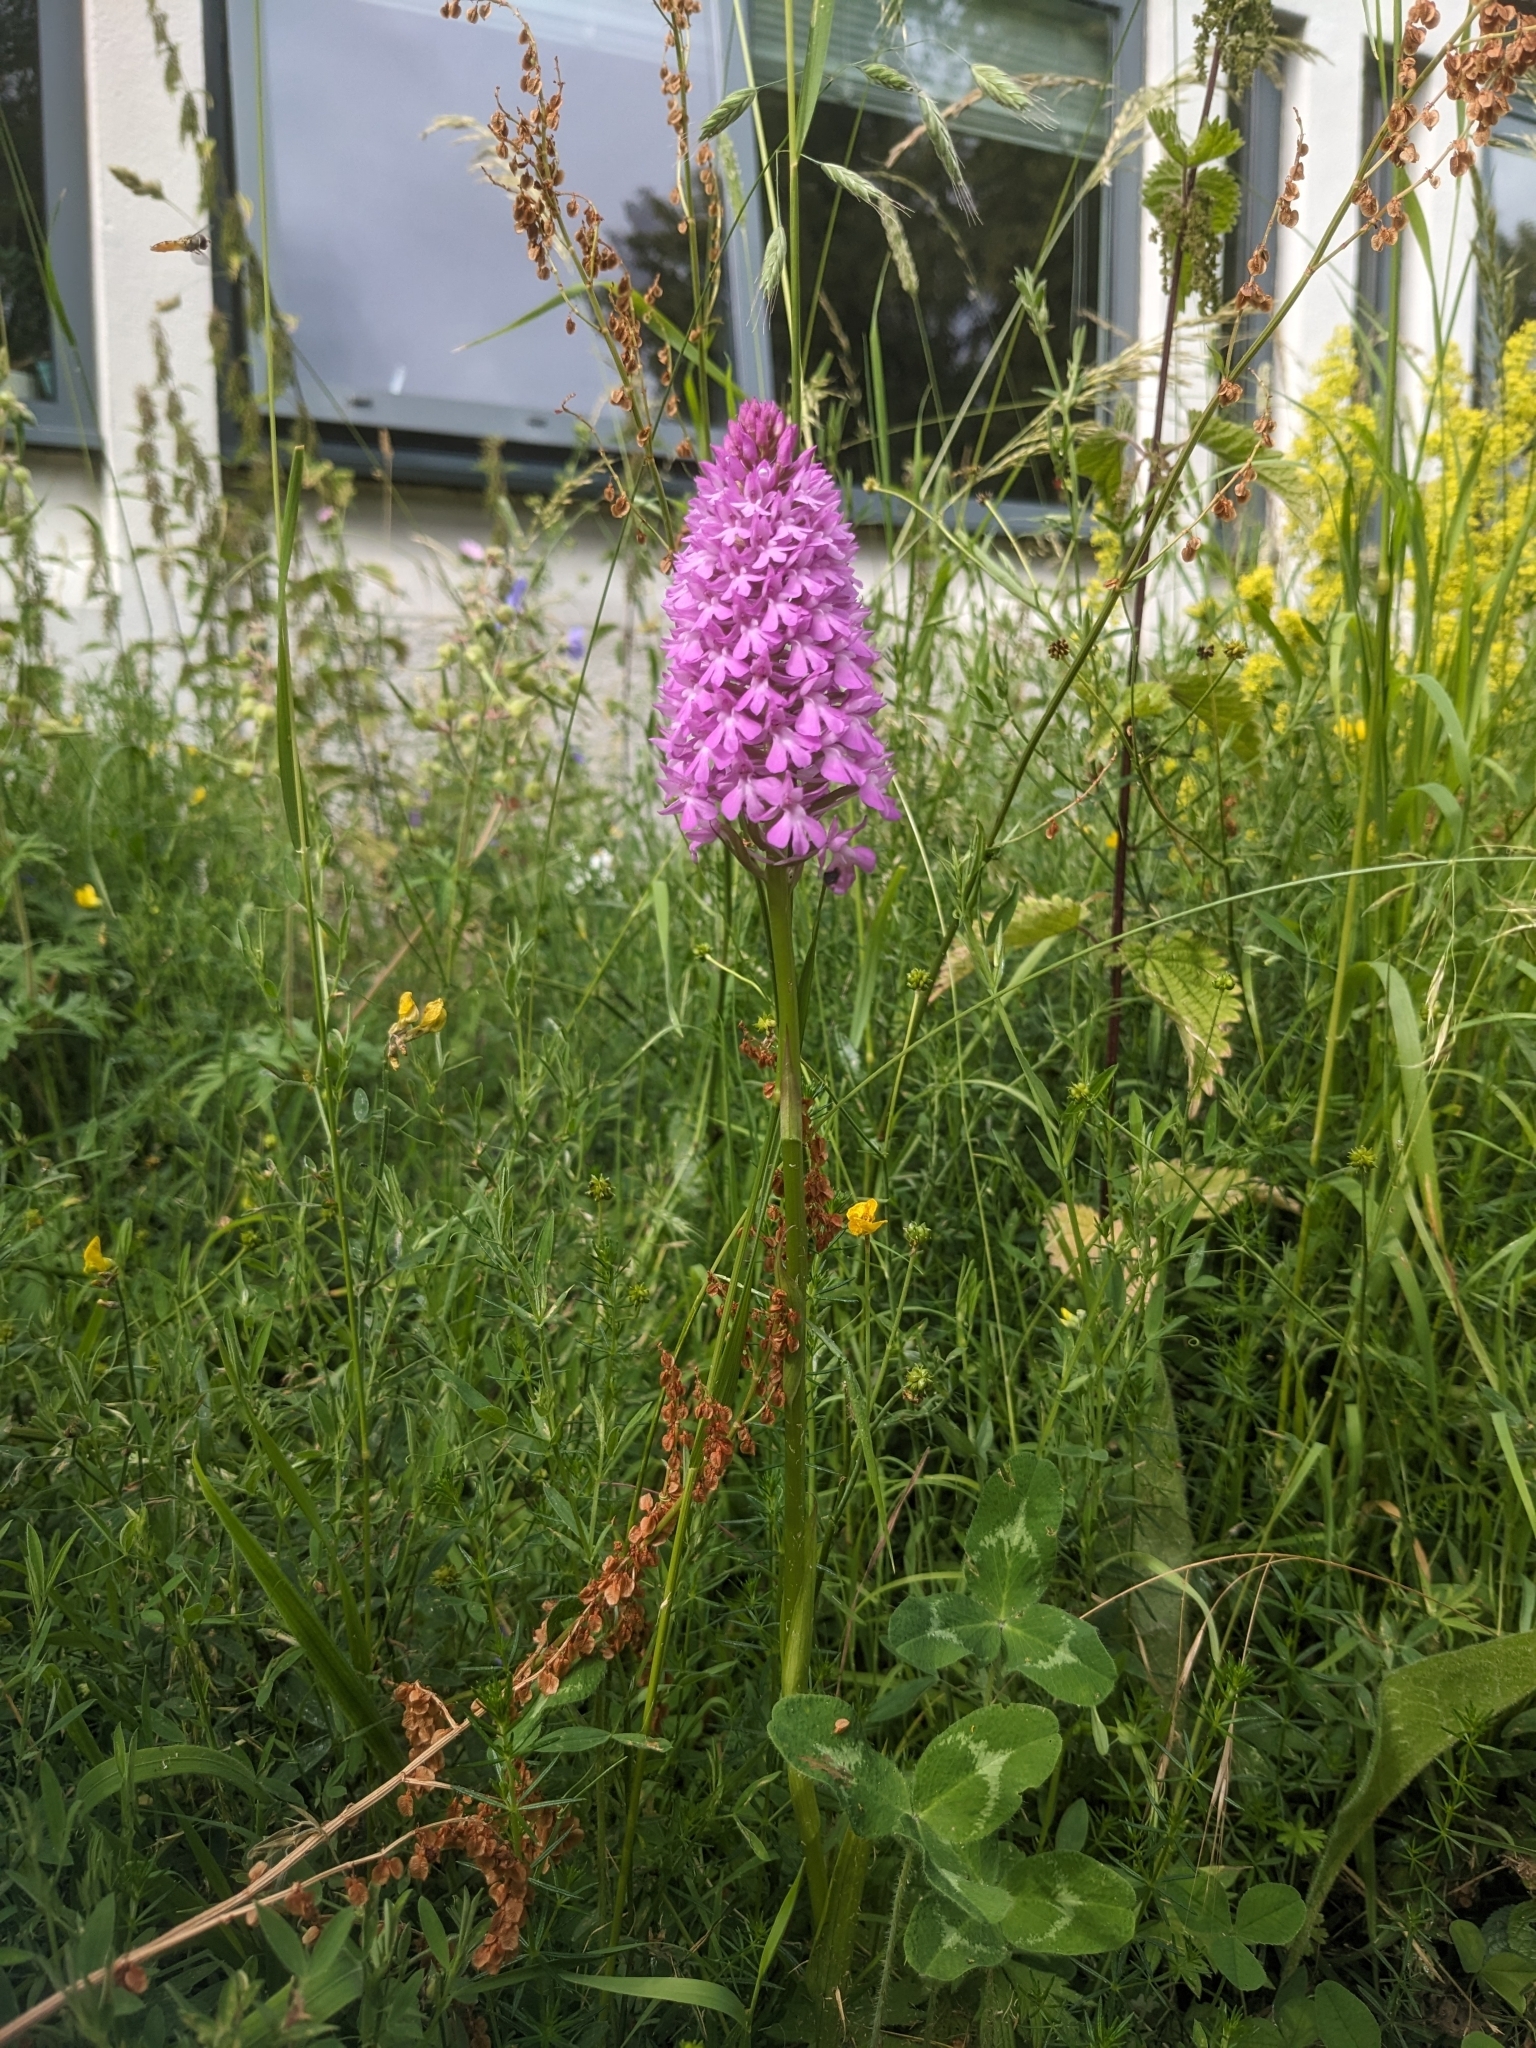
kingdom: Plantae
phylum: Tracheophyta
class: Liliopsida
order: Asparagales
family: Orchidaceae
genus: Anacamptis
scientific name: Anacamptis pyramidalis
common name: Pyramidal orchid
